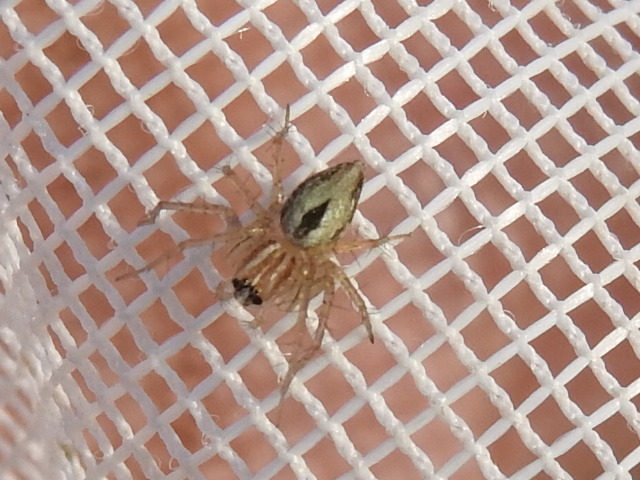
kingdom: Animalia
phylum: Arthropoda
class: Arachnida
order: Araneae
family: Oxyopidae
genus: Oxyopes
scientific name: Oxyopes salticus
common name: Lynx spiders
